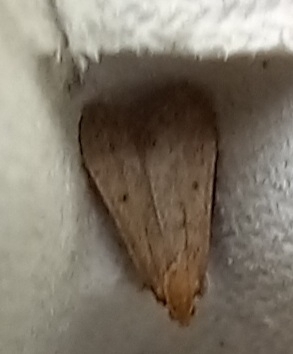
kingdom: Animalia
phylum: Arthropoda
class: Insecta
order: Lepidoptera
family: Pyralidae
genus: Bostra
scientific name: Bostra obsoletalis
